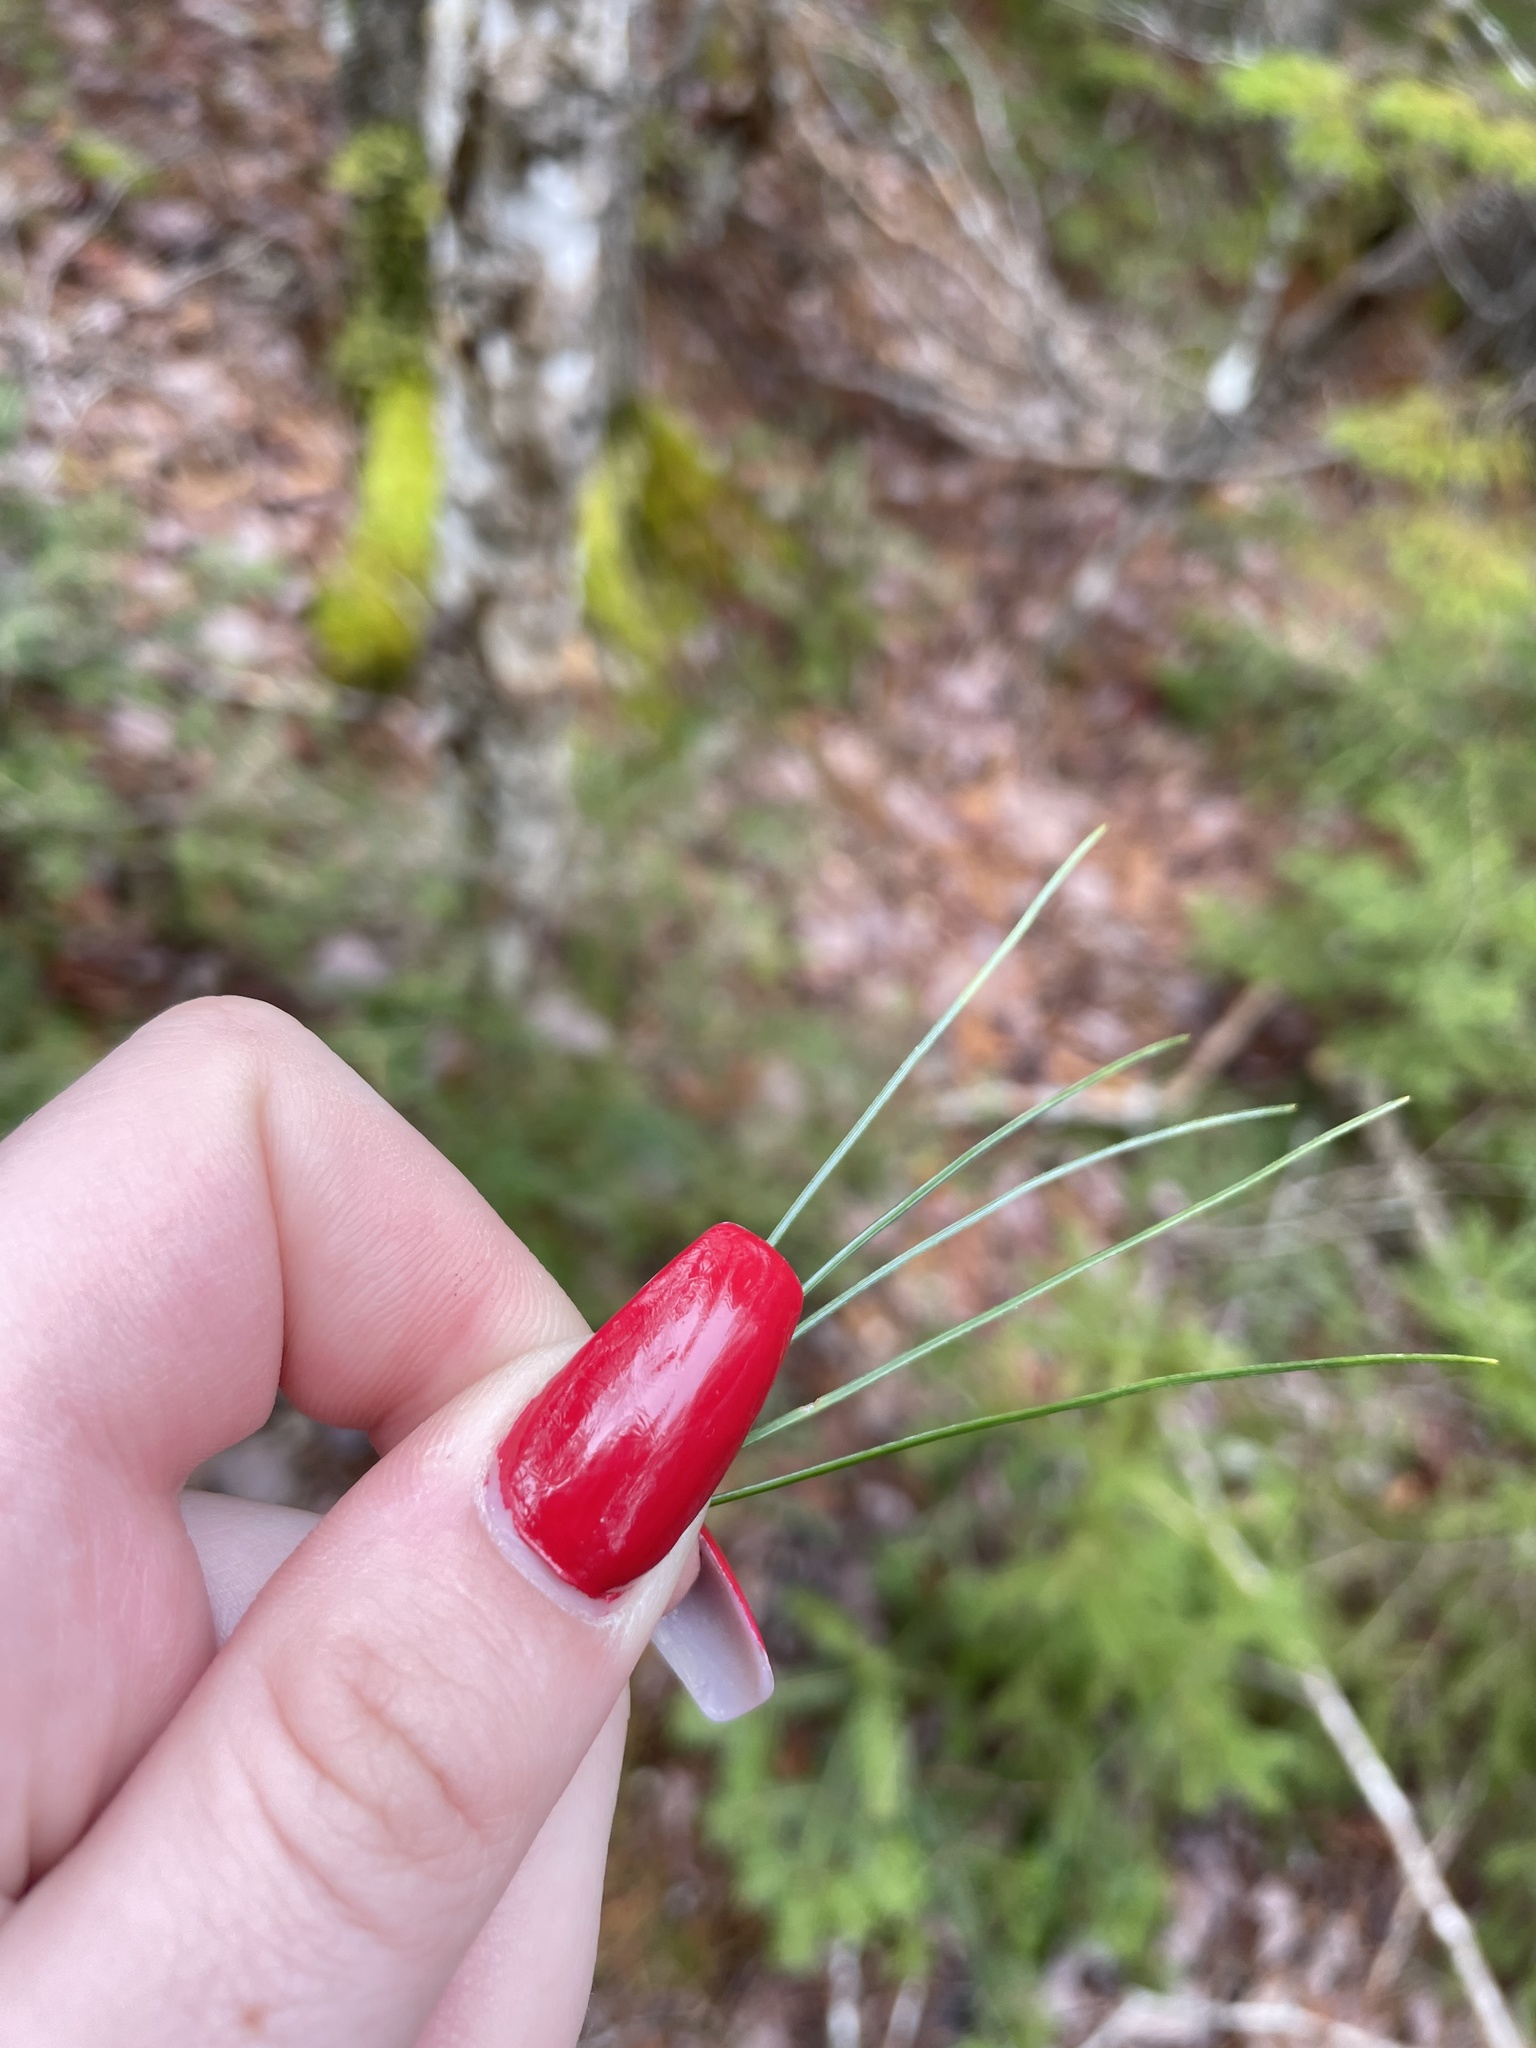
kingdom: Plantae
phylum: Tracheophyta
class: Pinopsida
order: Pinales
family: Pinaceae
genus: Pinus
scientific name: Pinus strobus
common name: Weymouth pine
